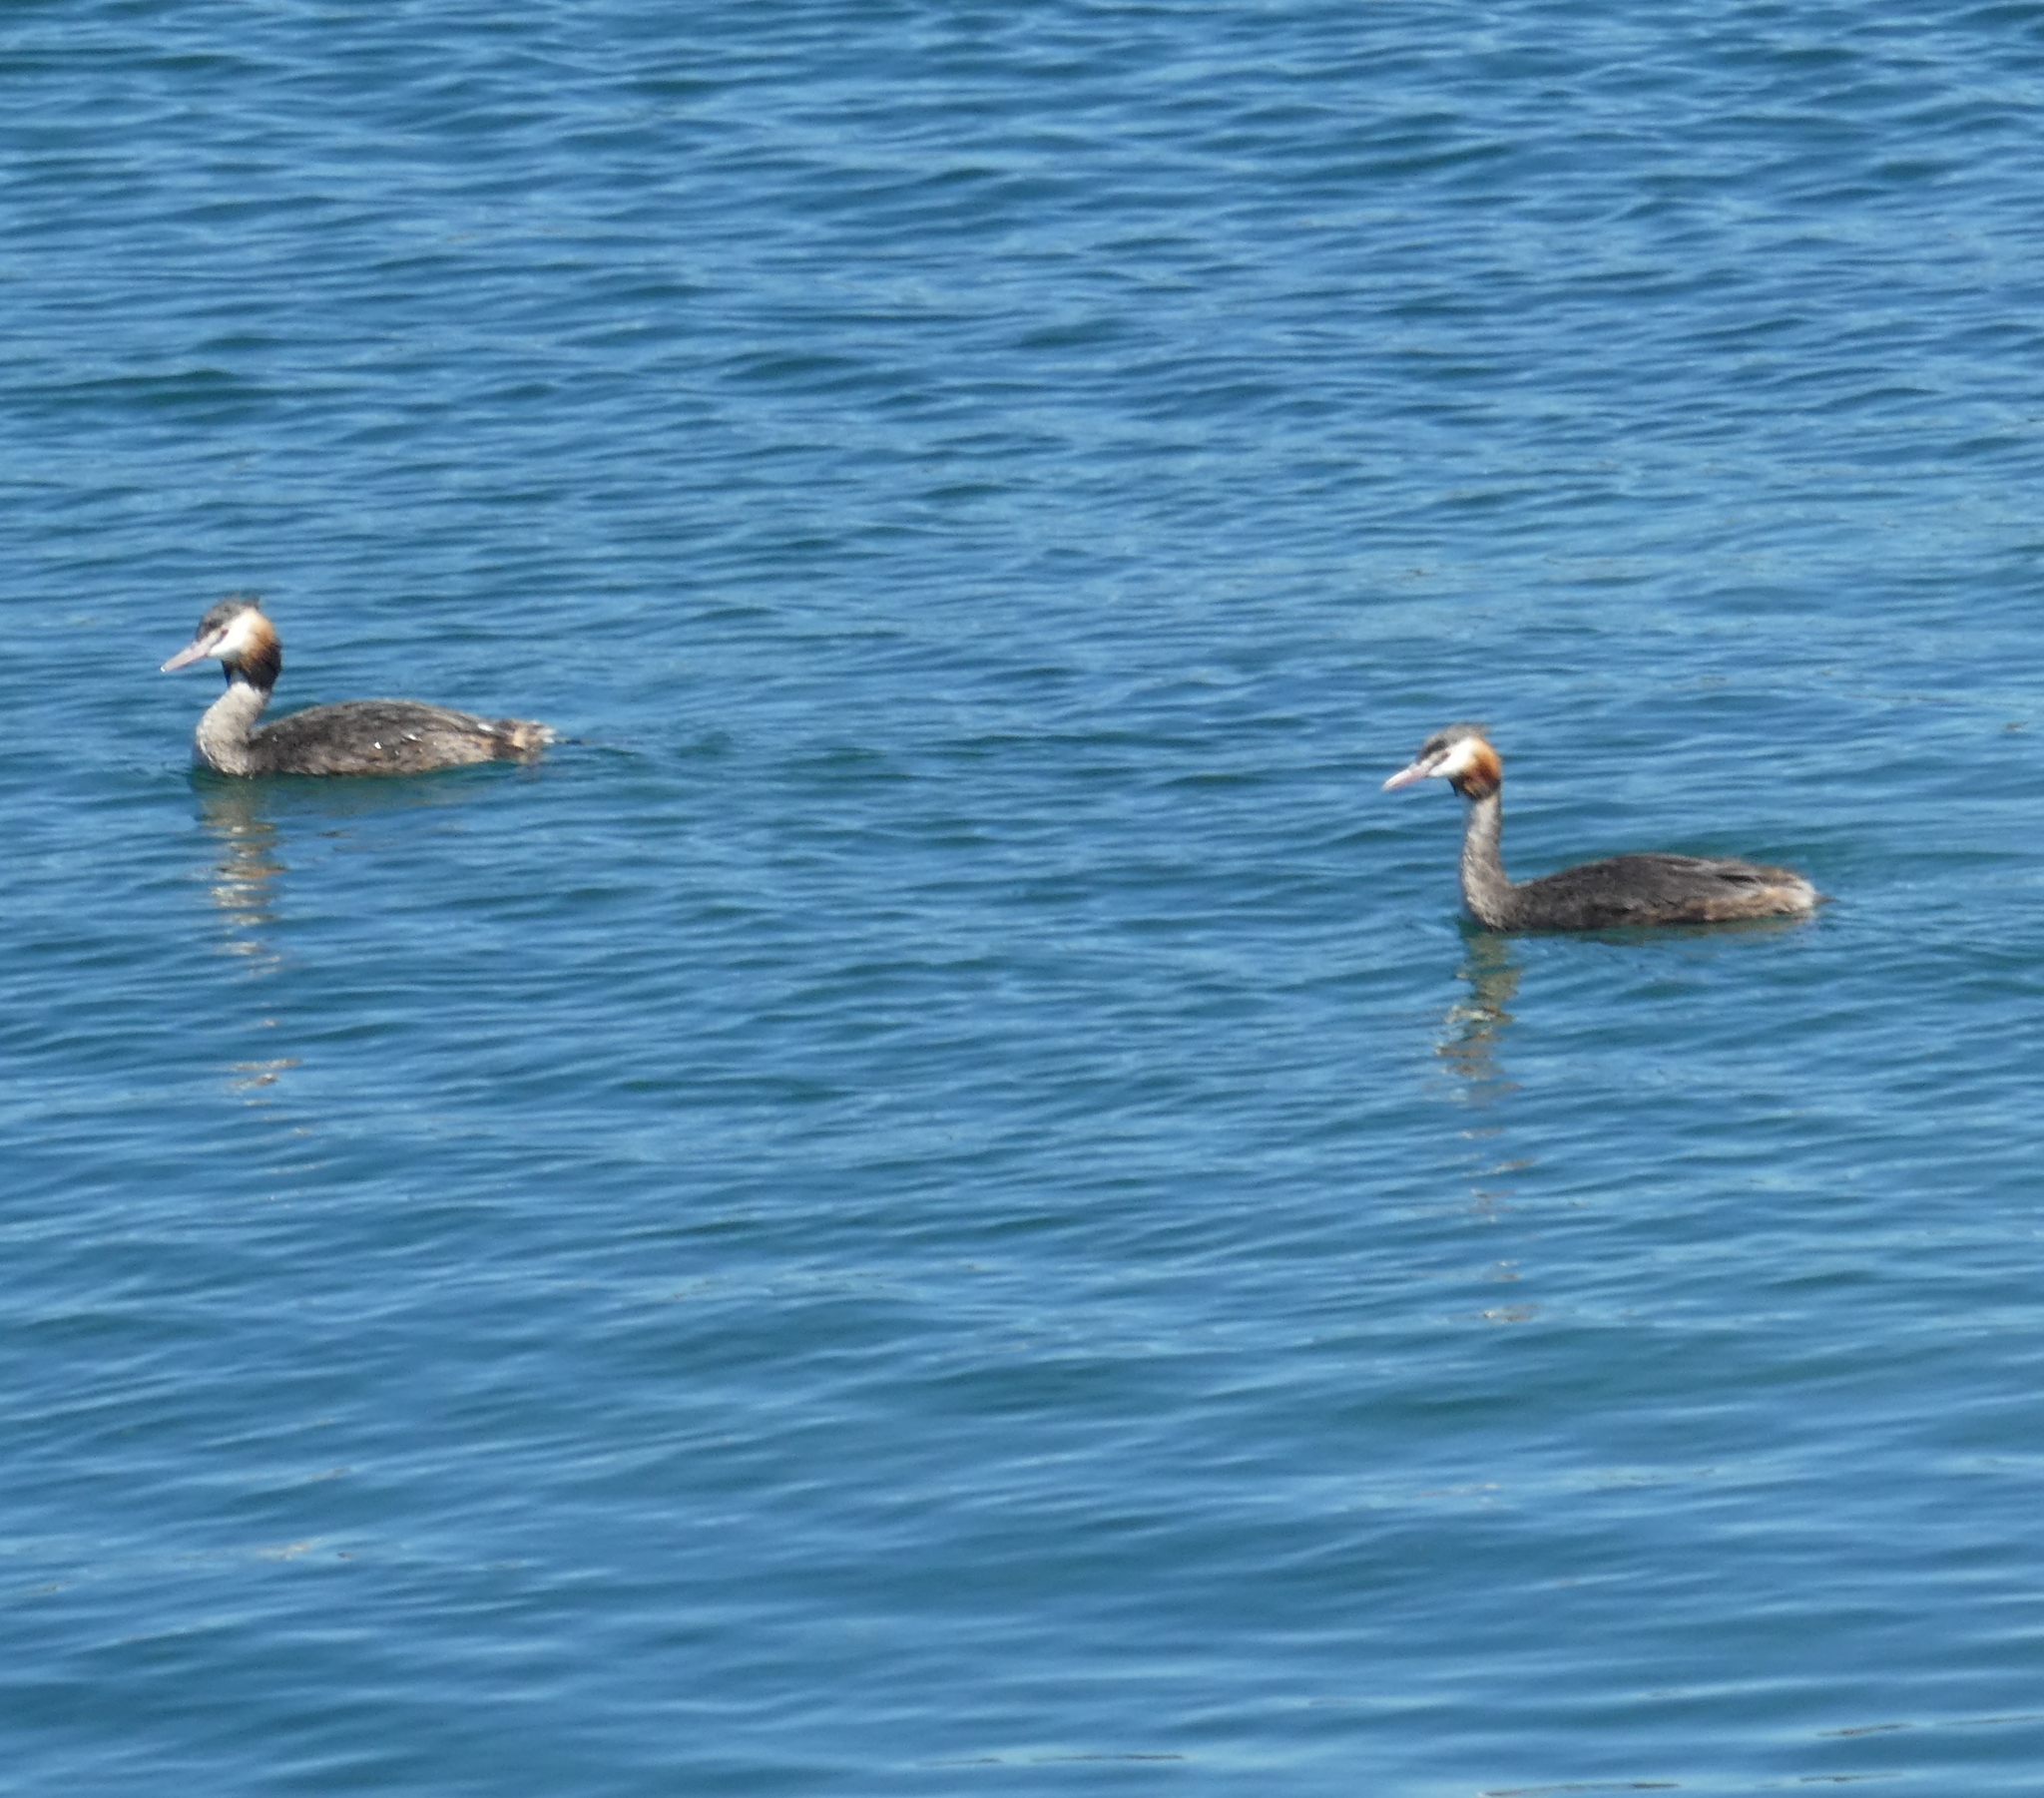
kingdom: Animalia
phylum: Chordata
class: Aves
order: Podicipediformes
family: Podicipedidae
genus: Podiceps
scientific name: Podiceps cristatus
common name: Great crested grebe
